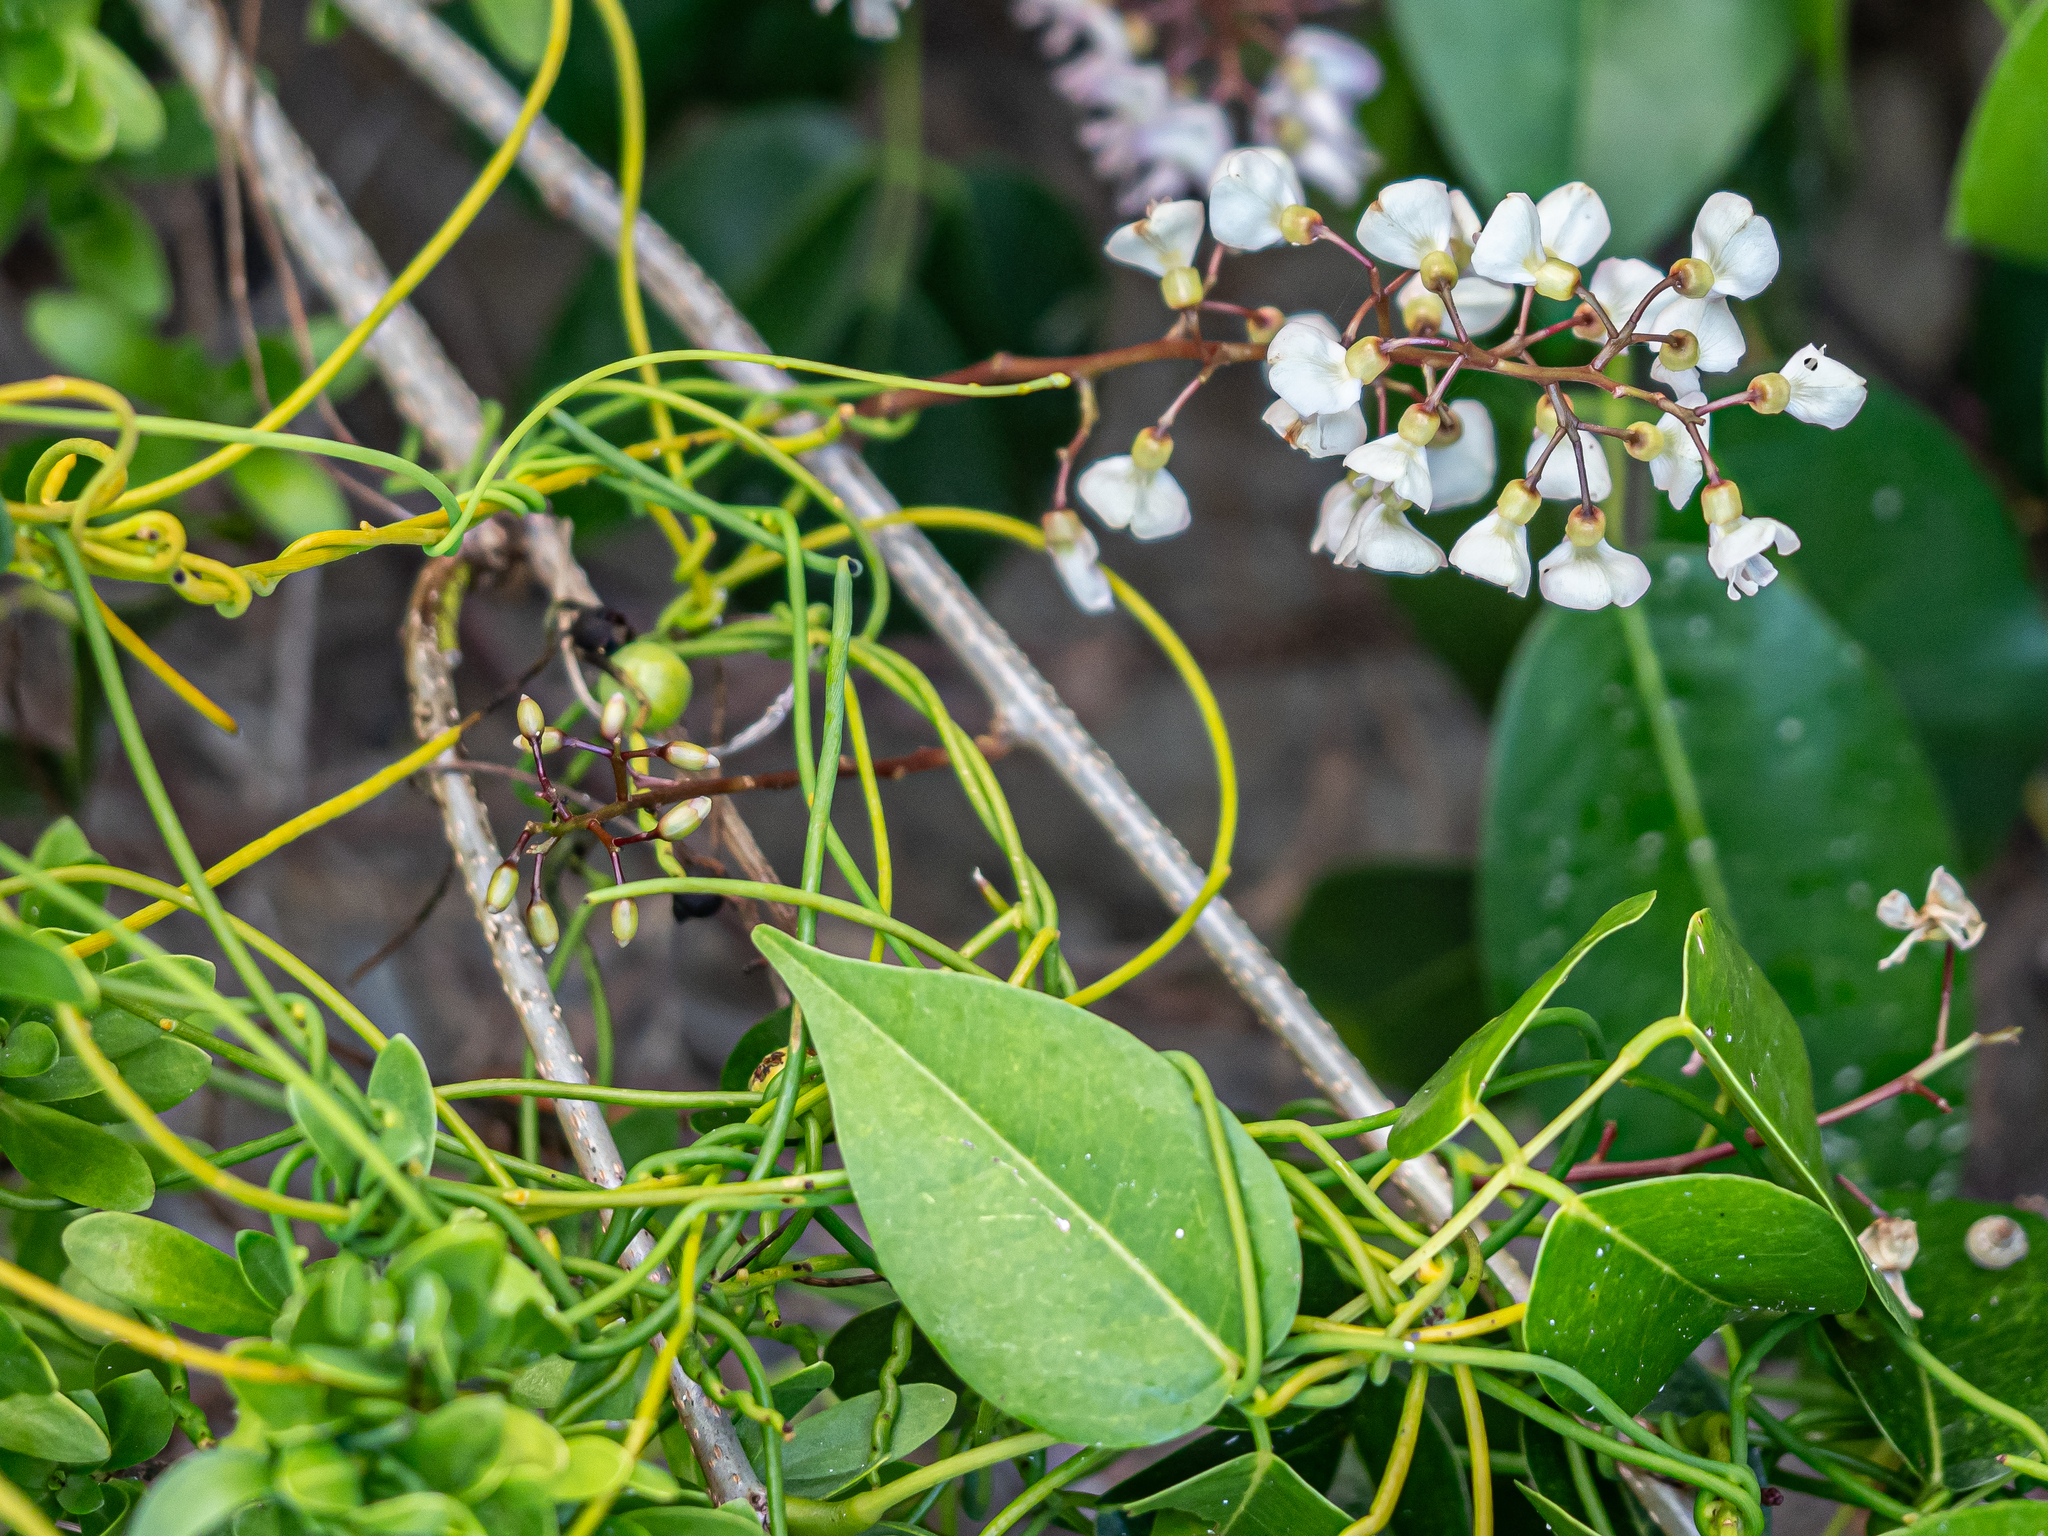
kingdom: Plantae
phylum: Tracheophyta
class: Magnoliopsida
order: Fabales
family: Fabaceae
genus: Derris
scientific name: Derris trifoliata
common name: Three-leaf derris
